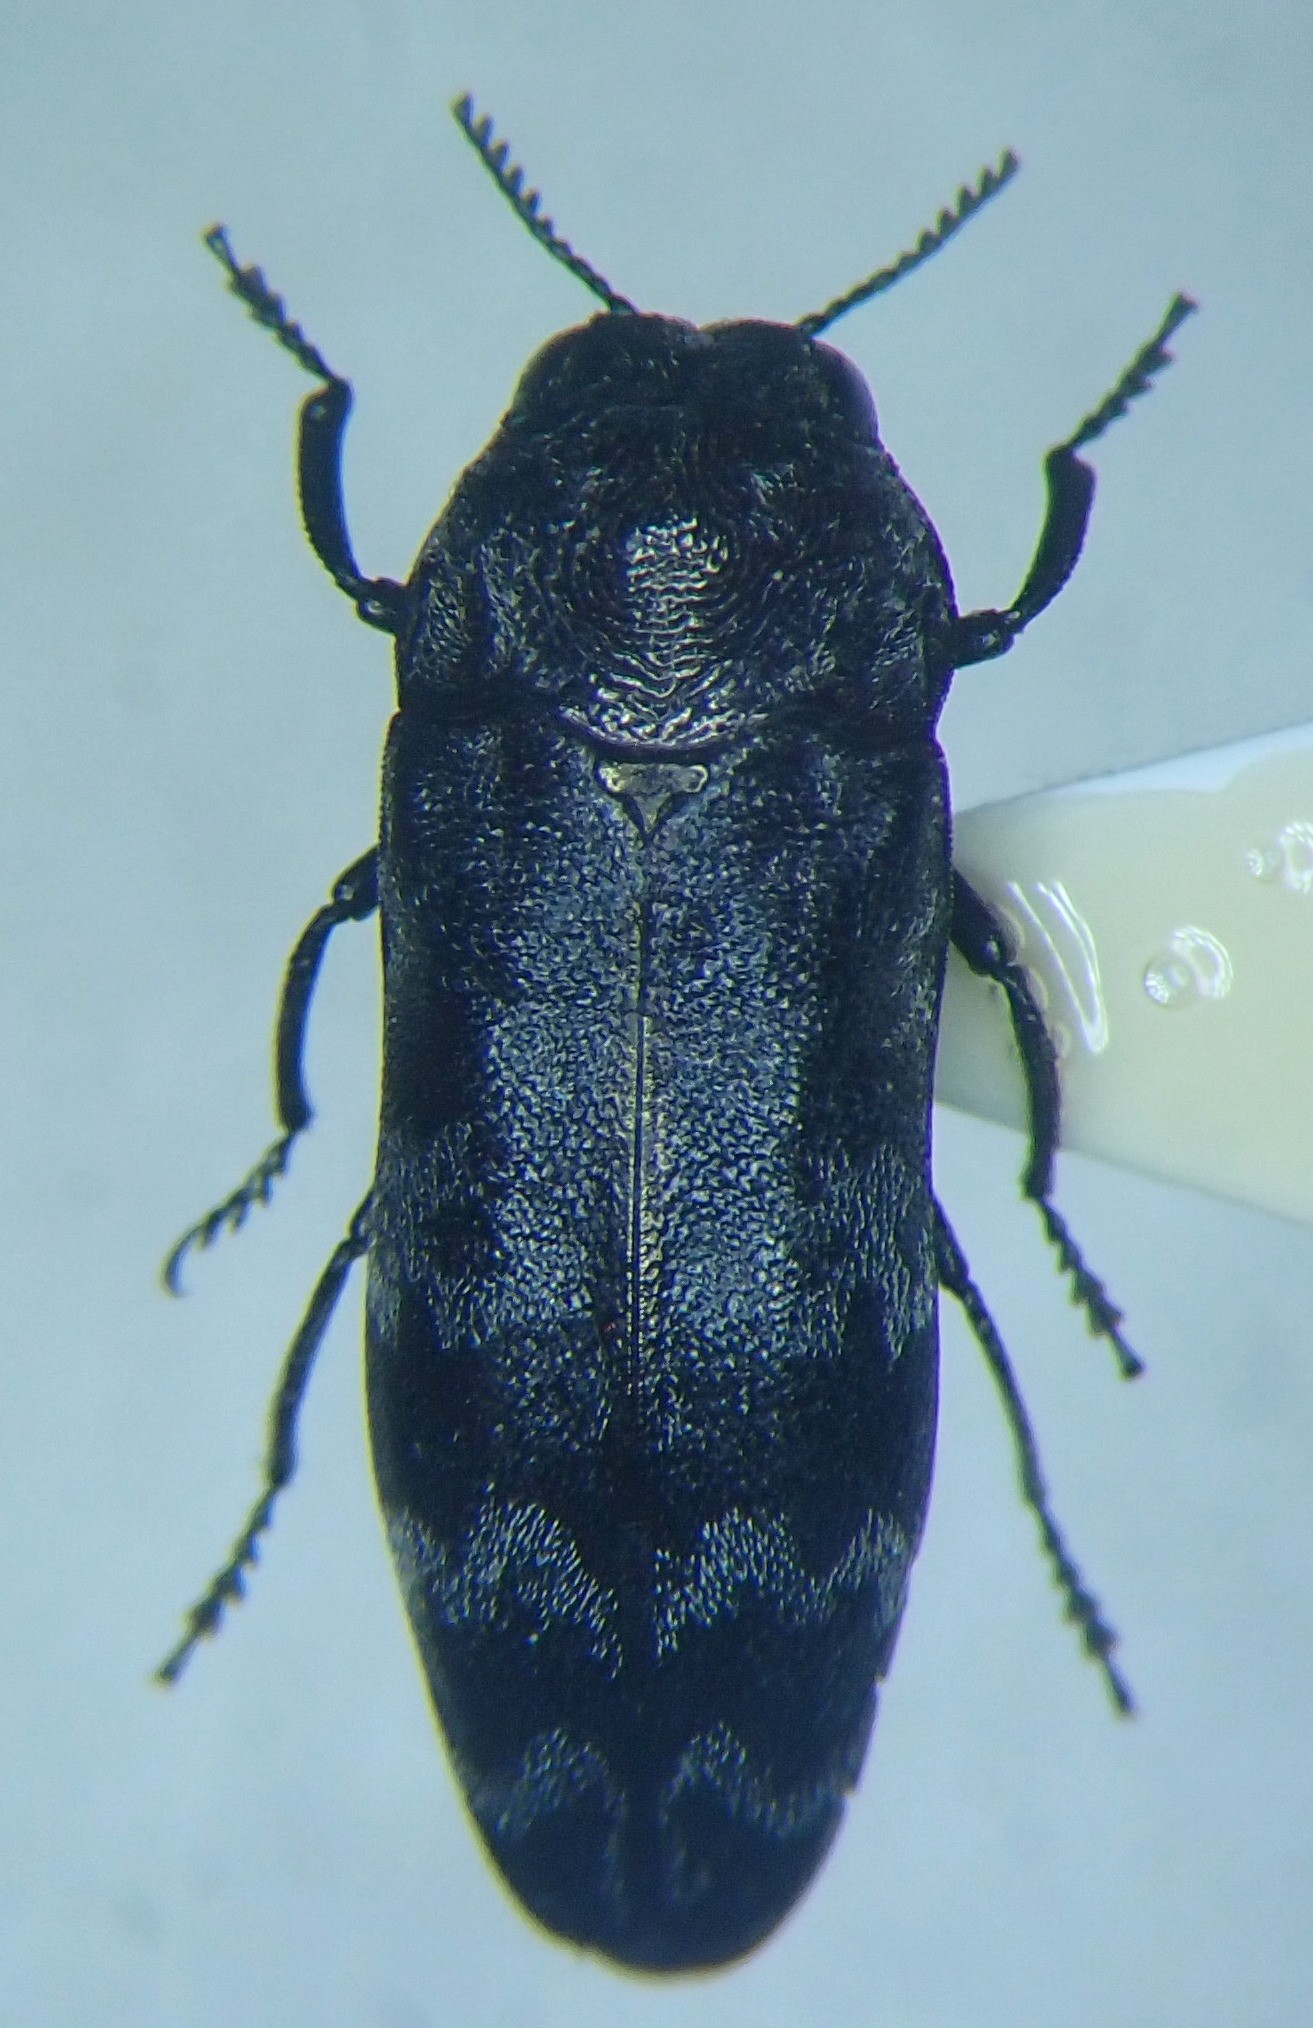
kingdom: Animalia
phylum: Arthropoda
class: Insecta
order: Coleoptera
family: Buprestidae
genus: Coraebus
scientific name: Coraebus rubi
